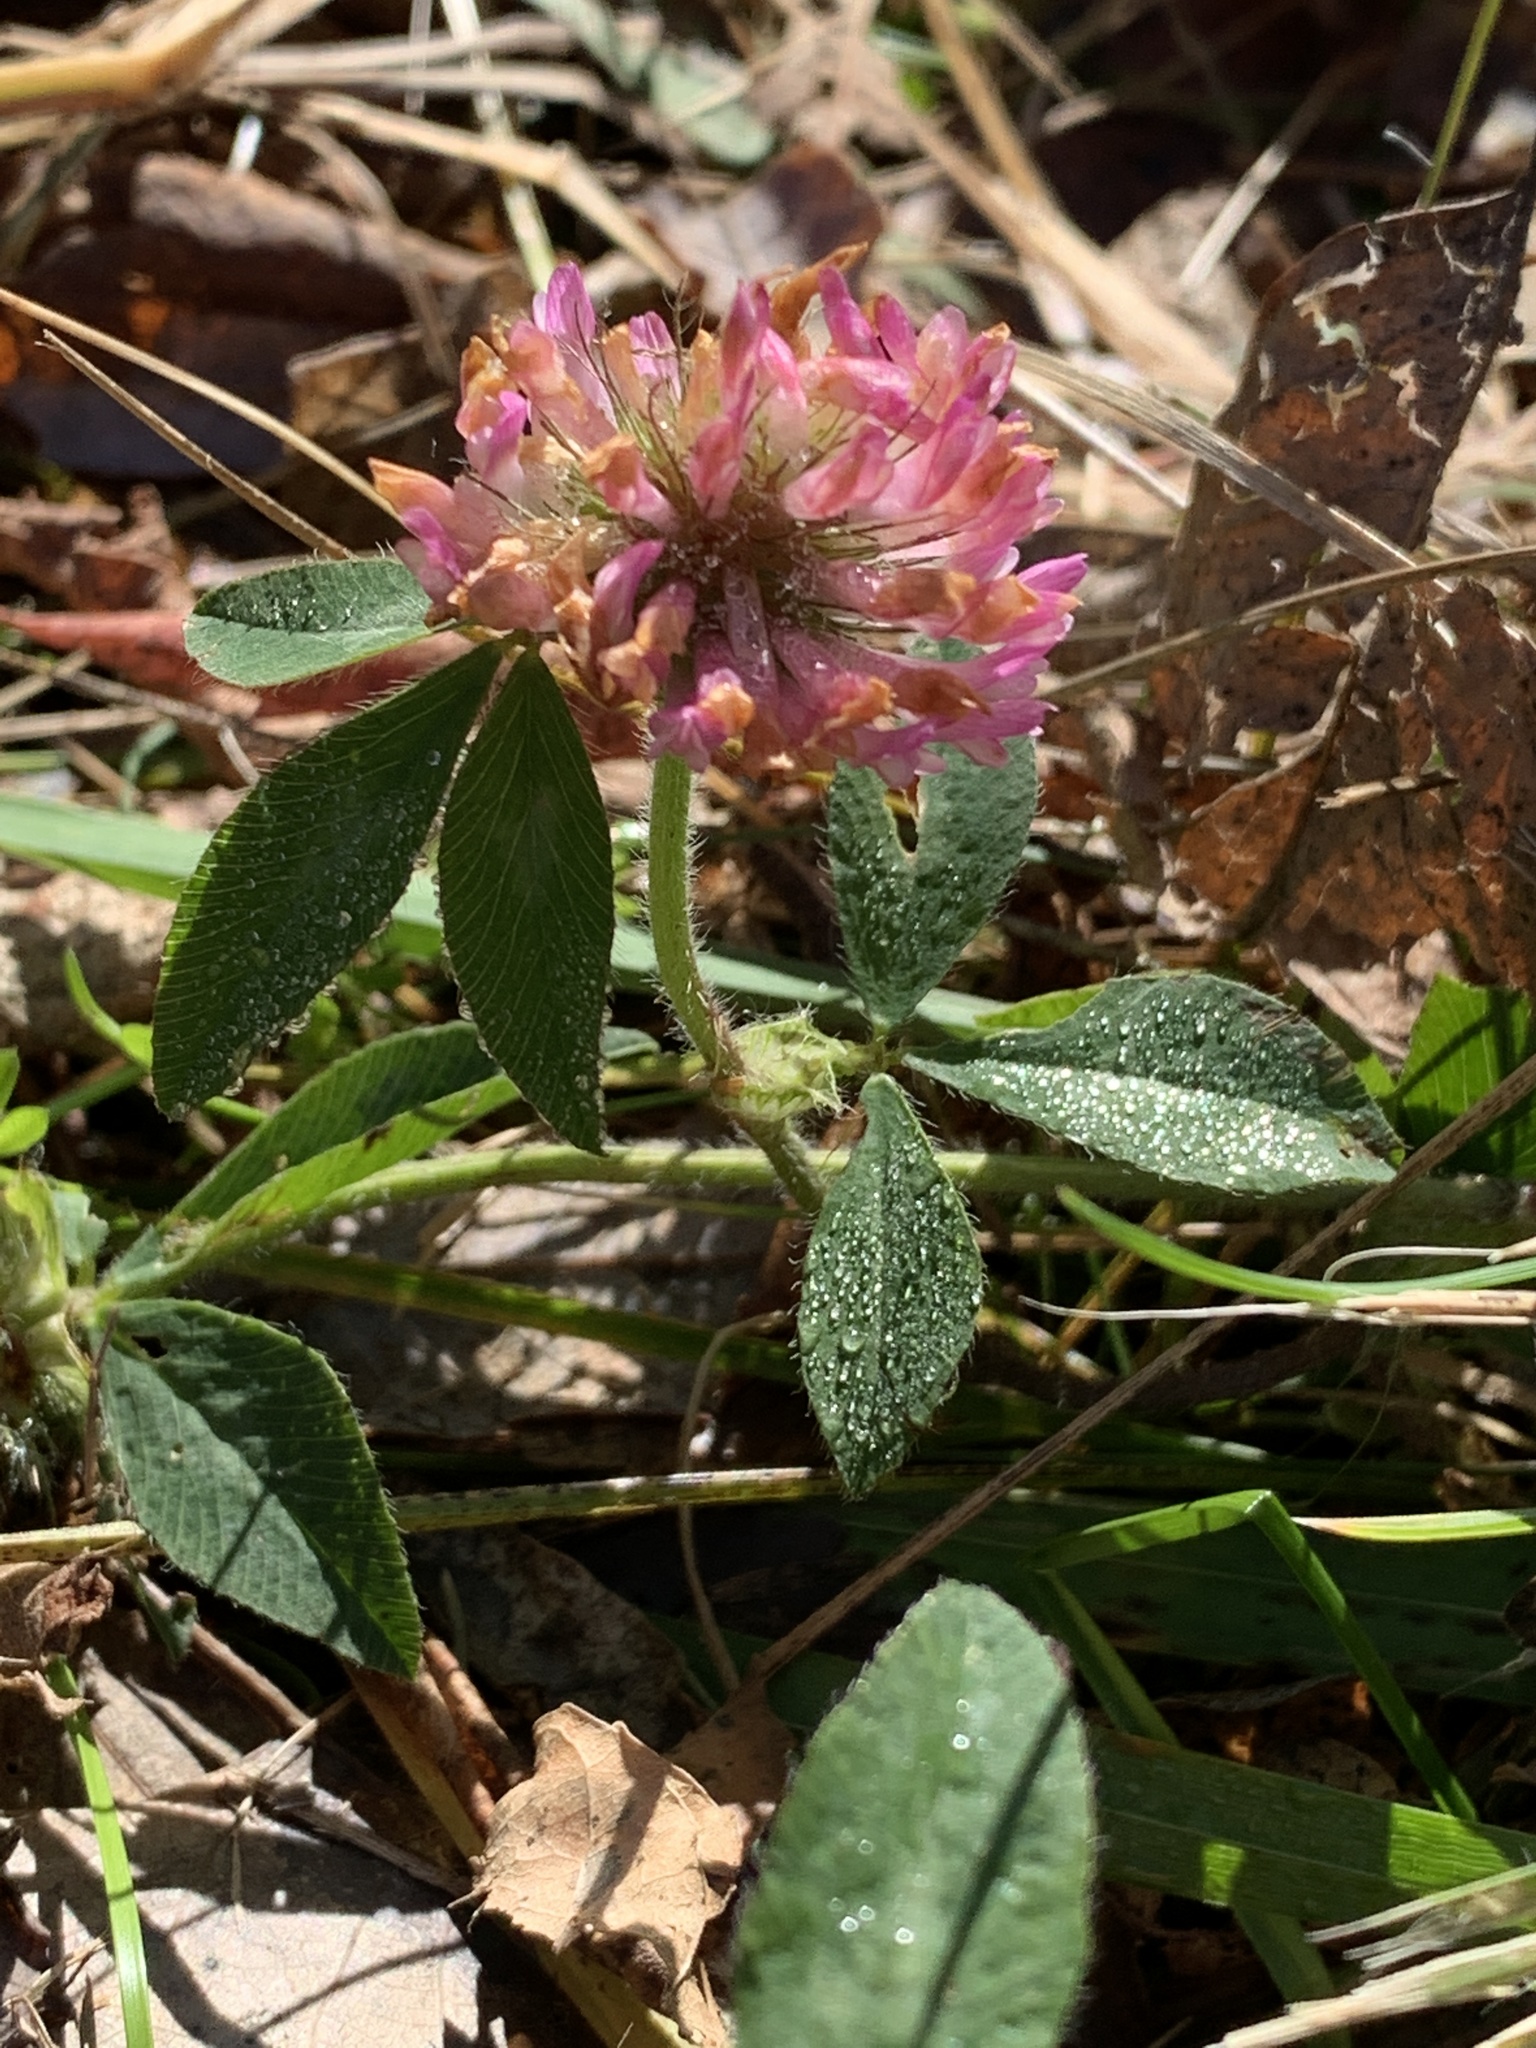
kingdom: Plantae
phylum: Tracheophyta
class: Magnoliopsida
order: Fabales
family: Fabaceae
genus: Trifolium
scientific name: Trifolium pratense
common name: Red clover
